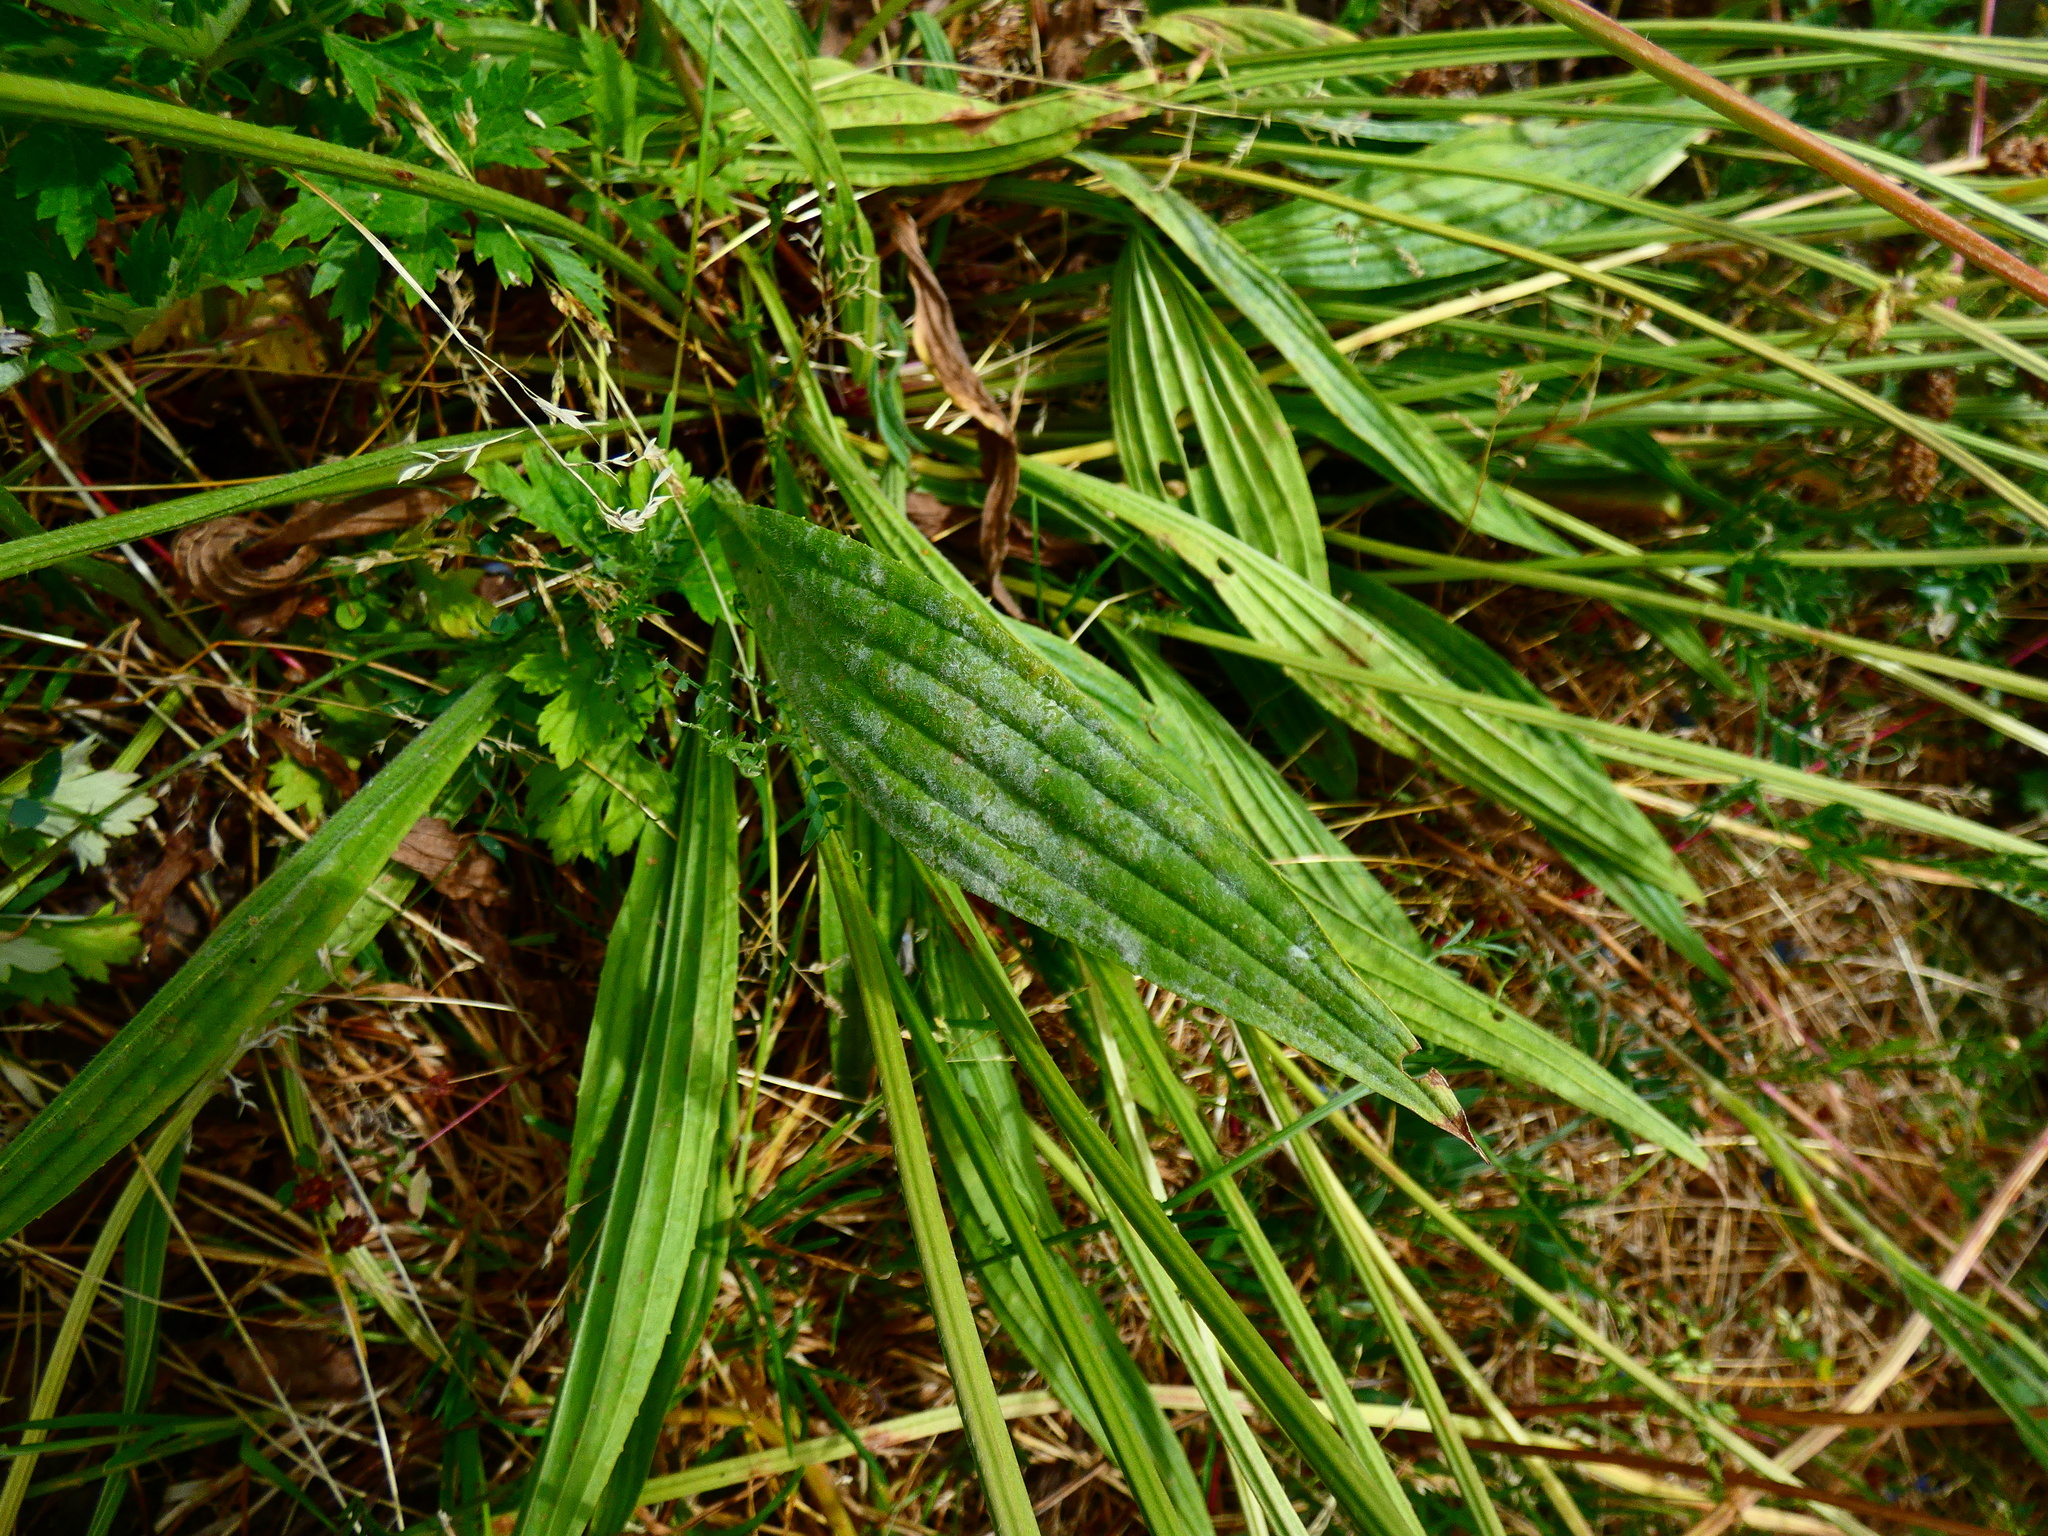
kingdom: Fungi
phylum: Ascomycota
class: Leotiomycetes
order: Helotiales
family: Erysiphaceae
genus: Golovinomyces
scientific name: Golovinomyces sordidus
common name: Plantain mildew
